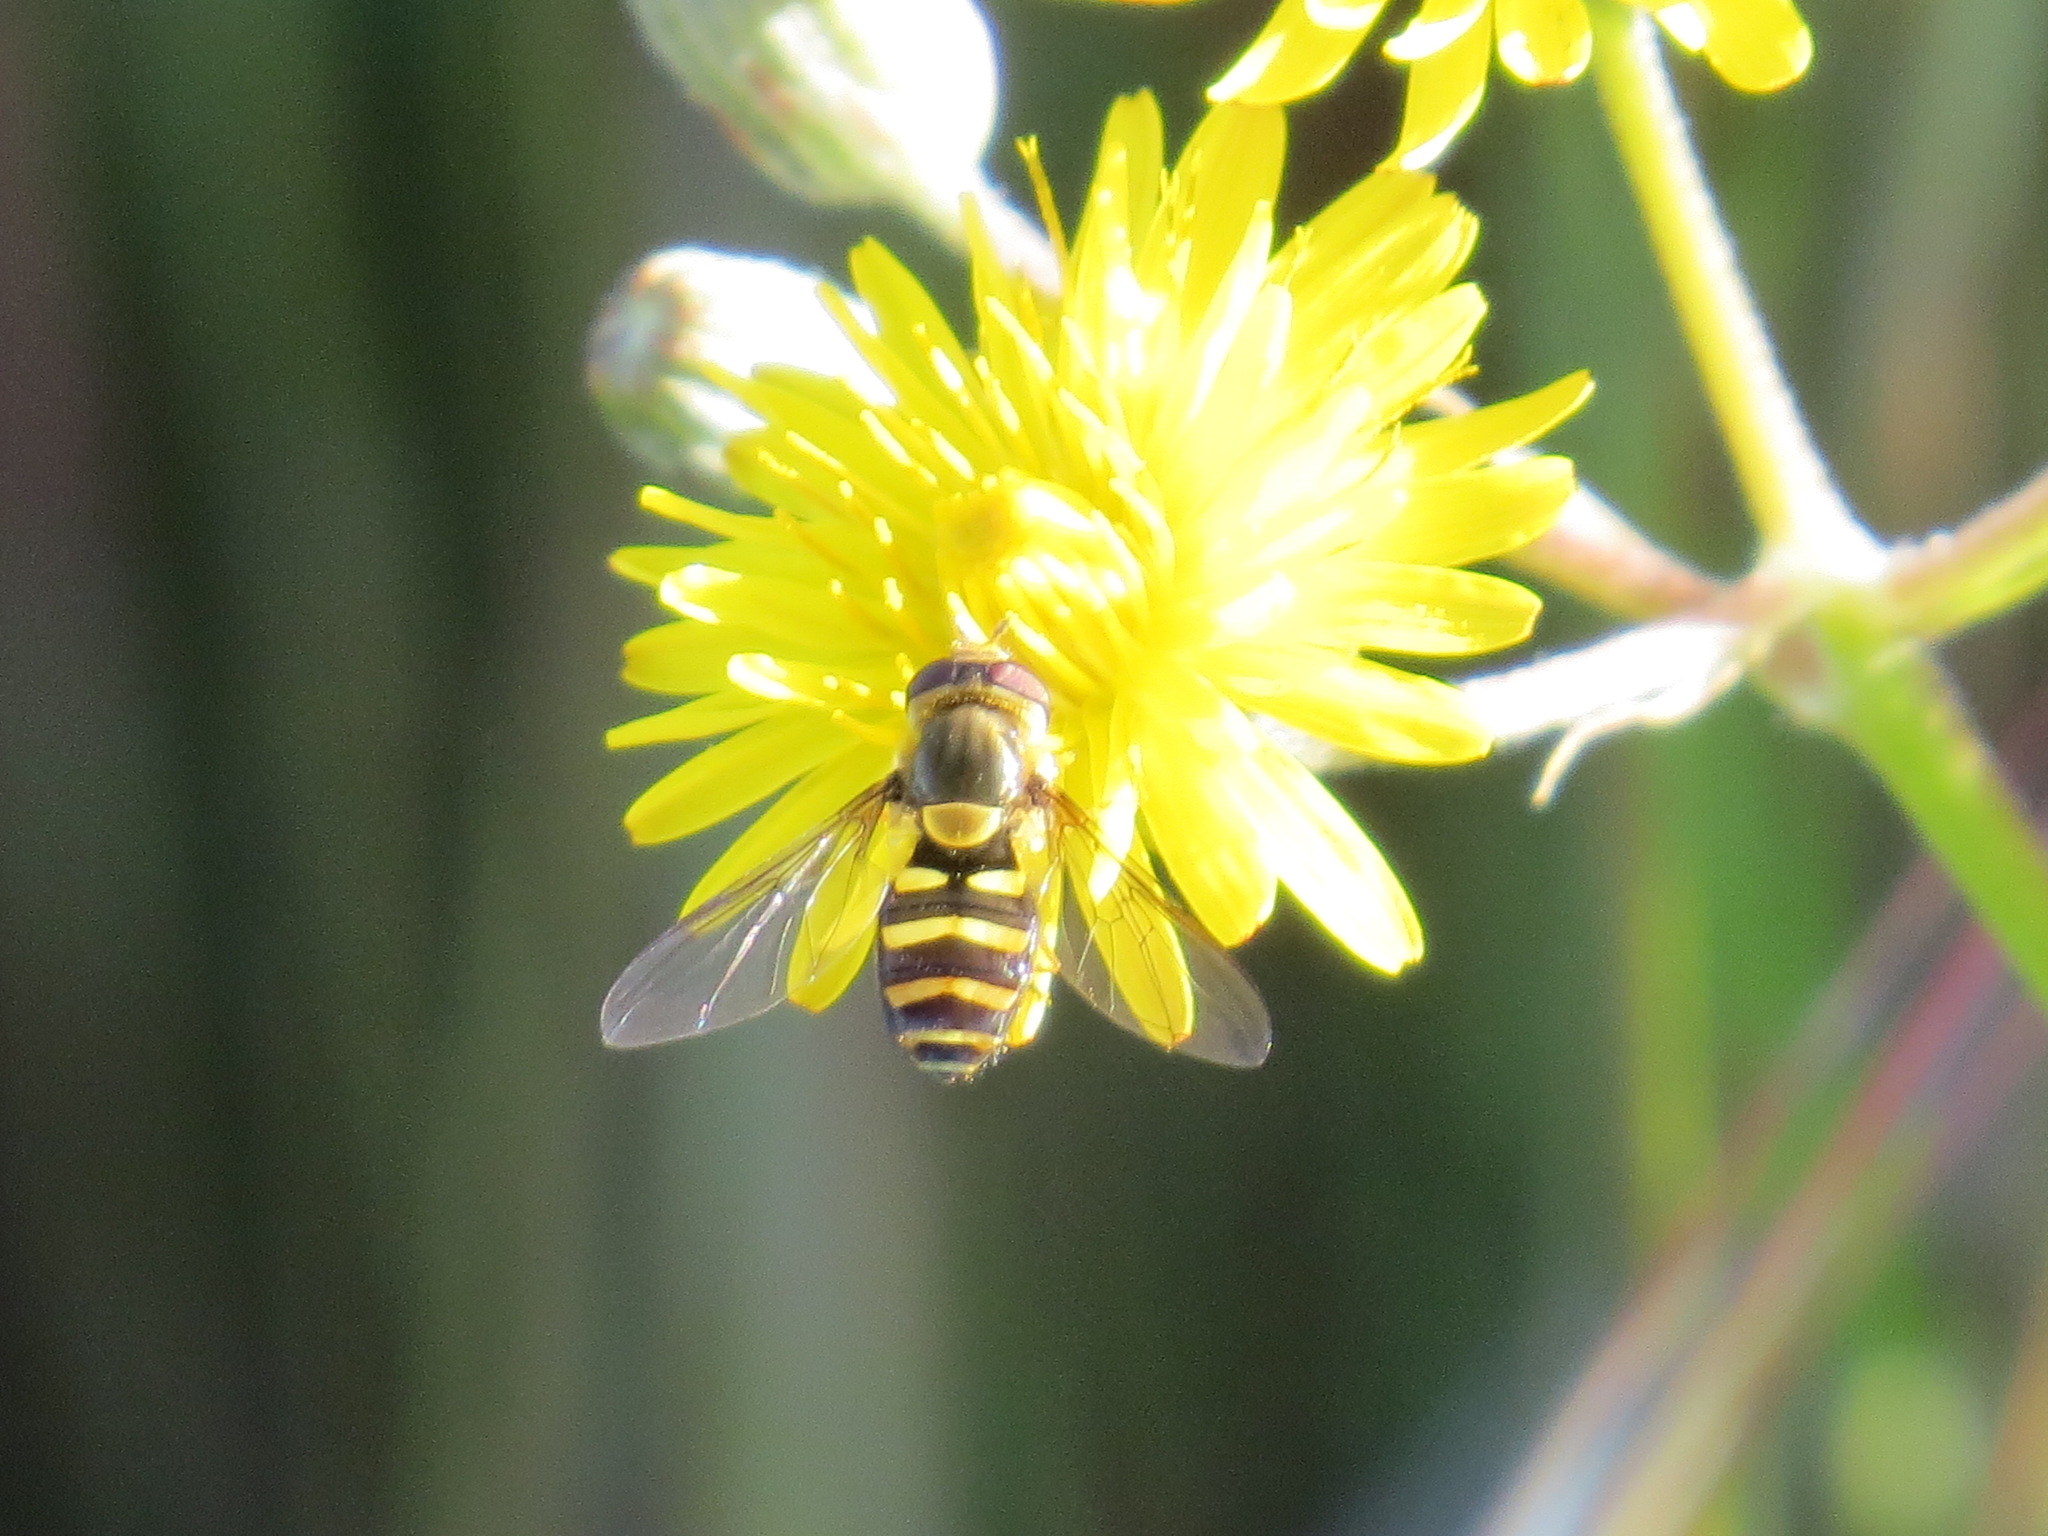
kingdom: Animalia
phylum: Arthropoda
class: Insecta
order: Diptera
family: Syrphidae
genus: Syrphus
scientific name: Syrphus opinator
